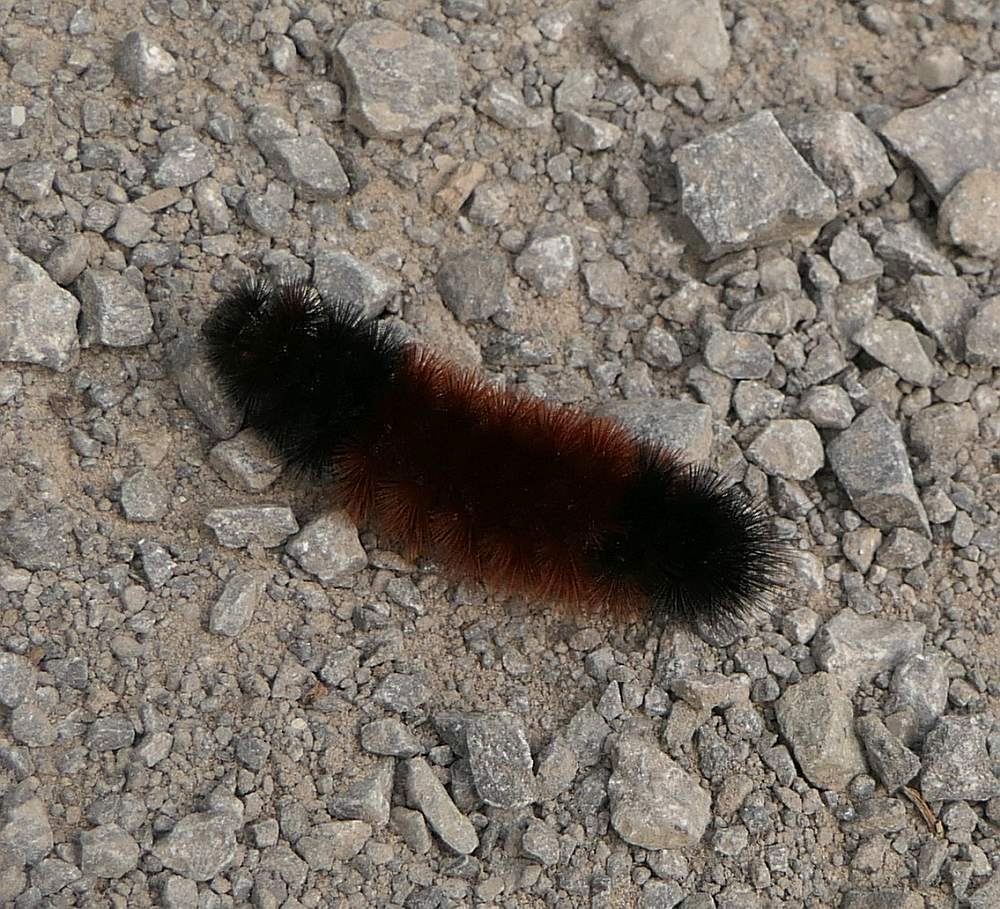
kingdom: Animalia
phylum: Arthropoda
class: Insecta
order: Lepidoptera
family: Erebidae
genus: Pyrrharctia
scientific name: Pyrrharctia isabella
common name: Isabella tiger moth
